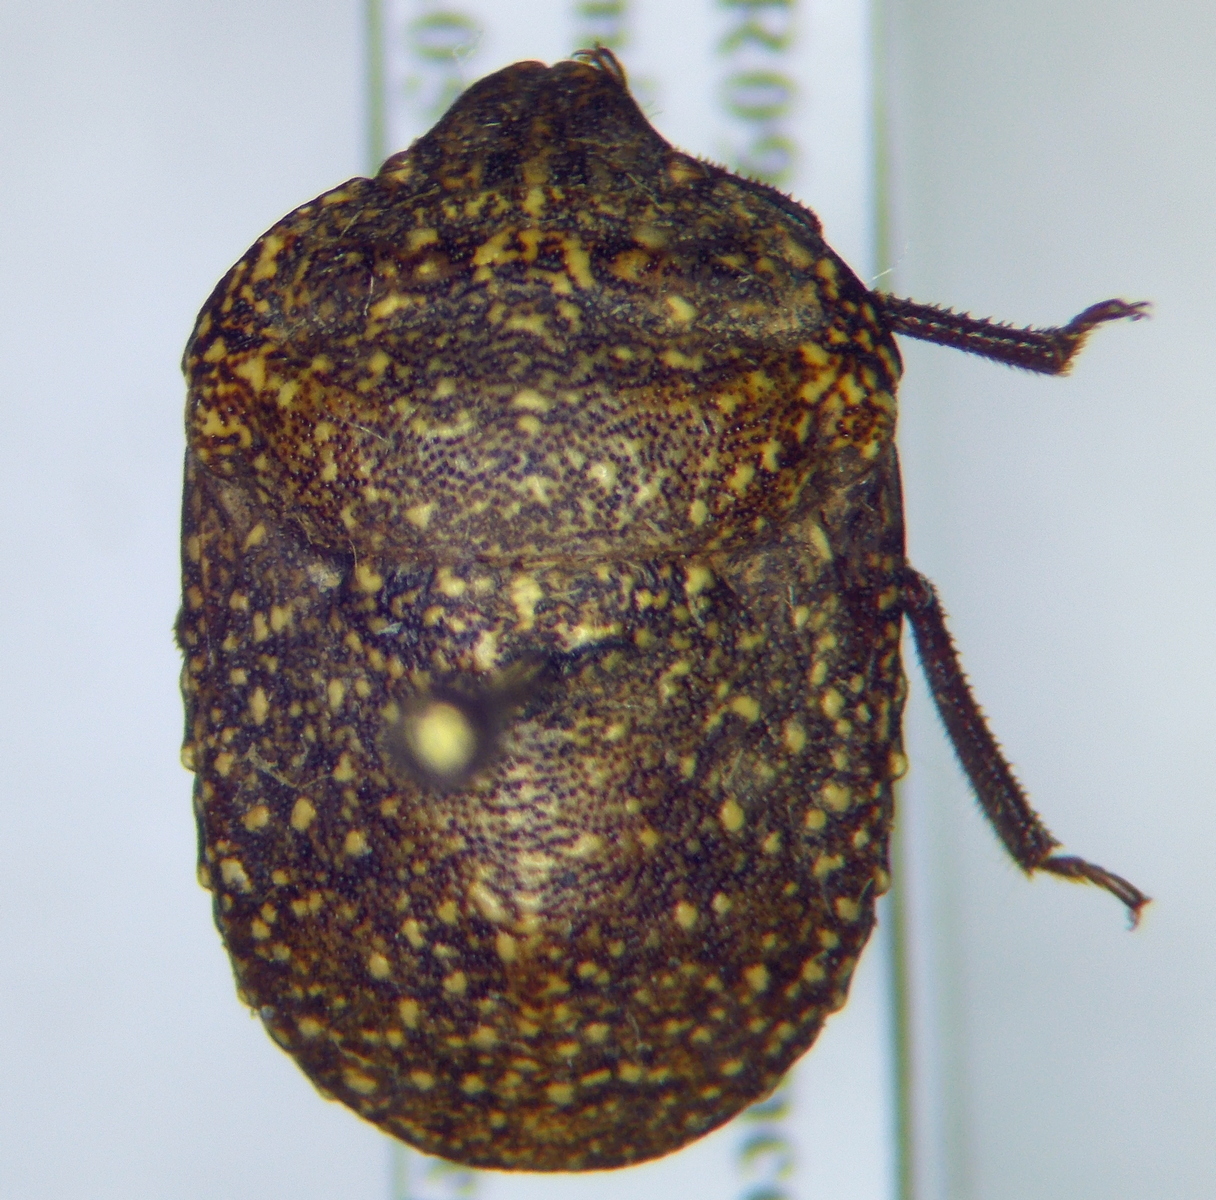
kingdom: Animalia
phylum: Arthropoda
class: Insecta
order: Hemiptera
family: Scutelleridae
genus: Psacasta
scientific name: Psacasta exanthematica
